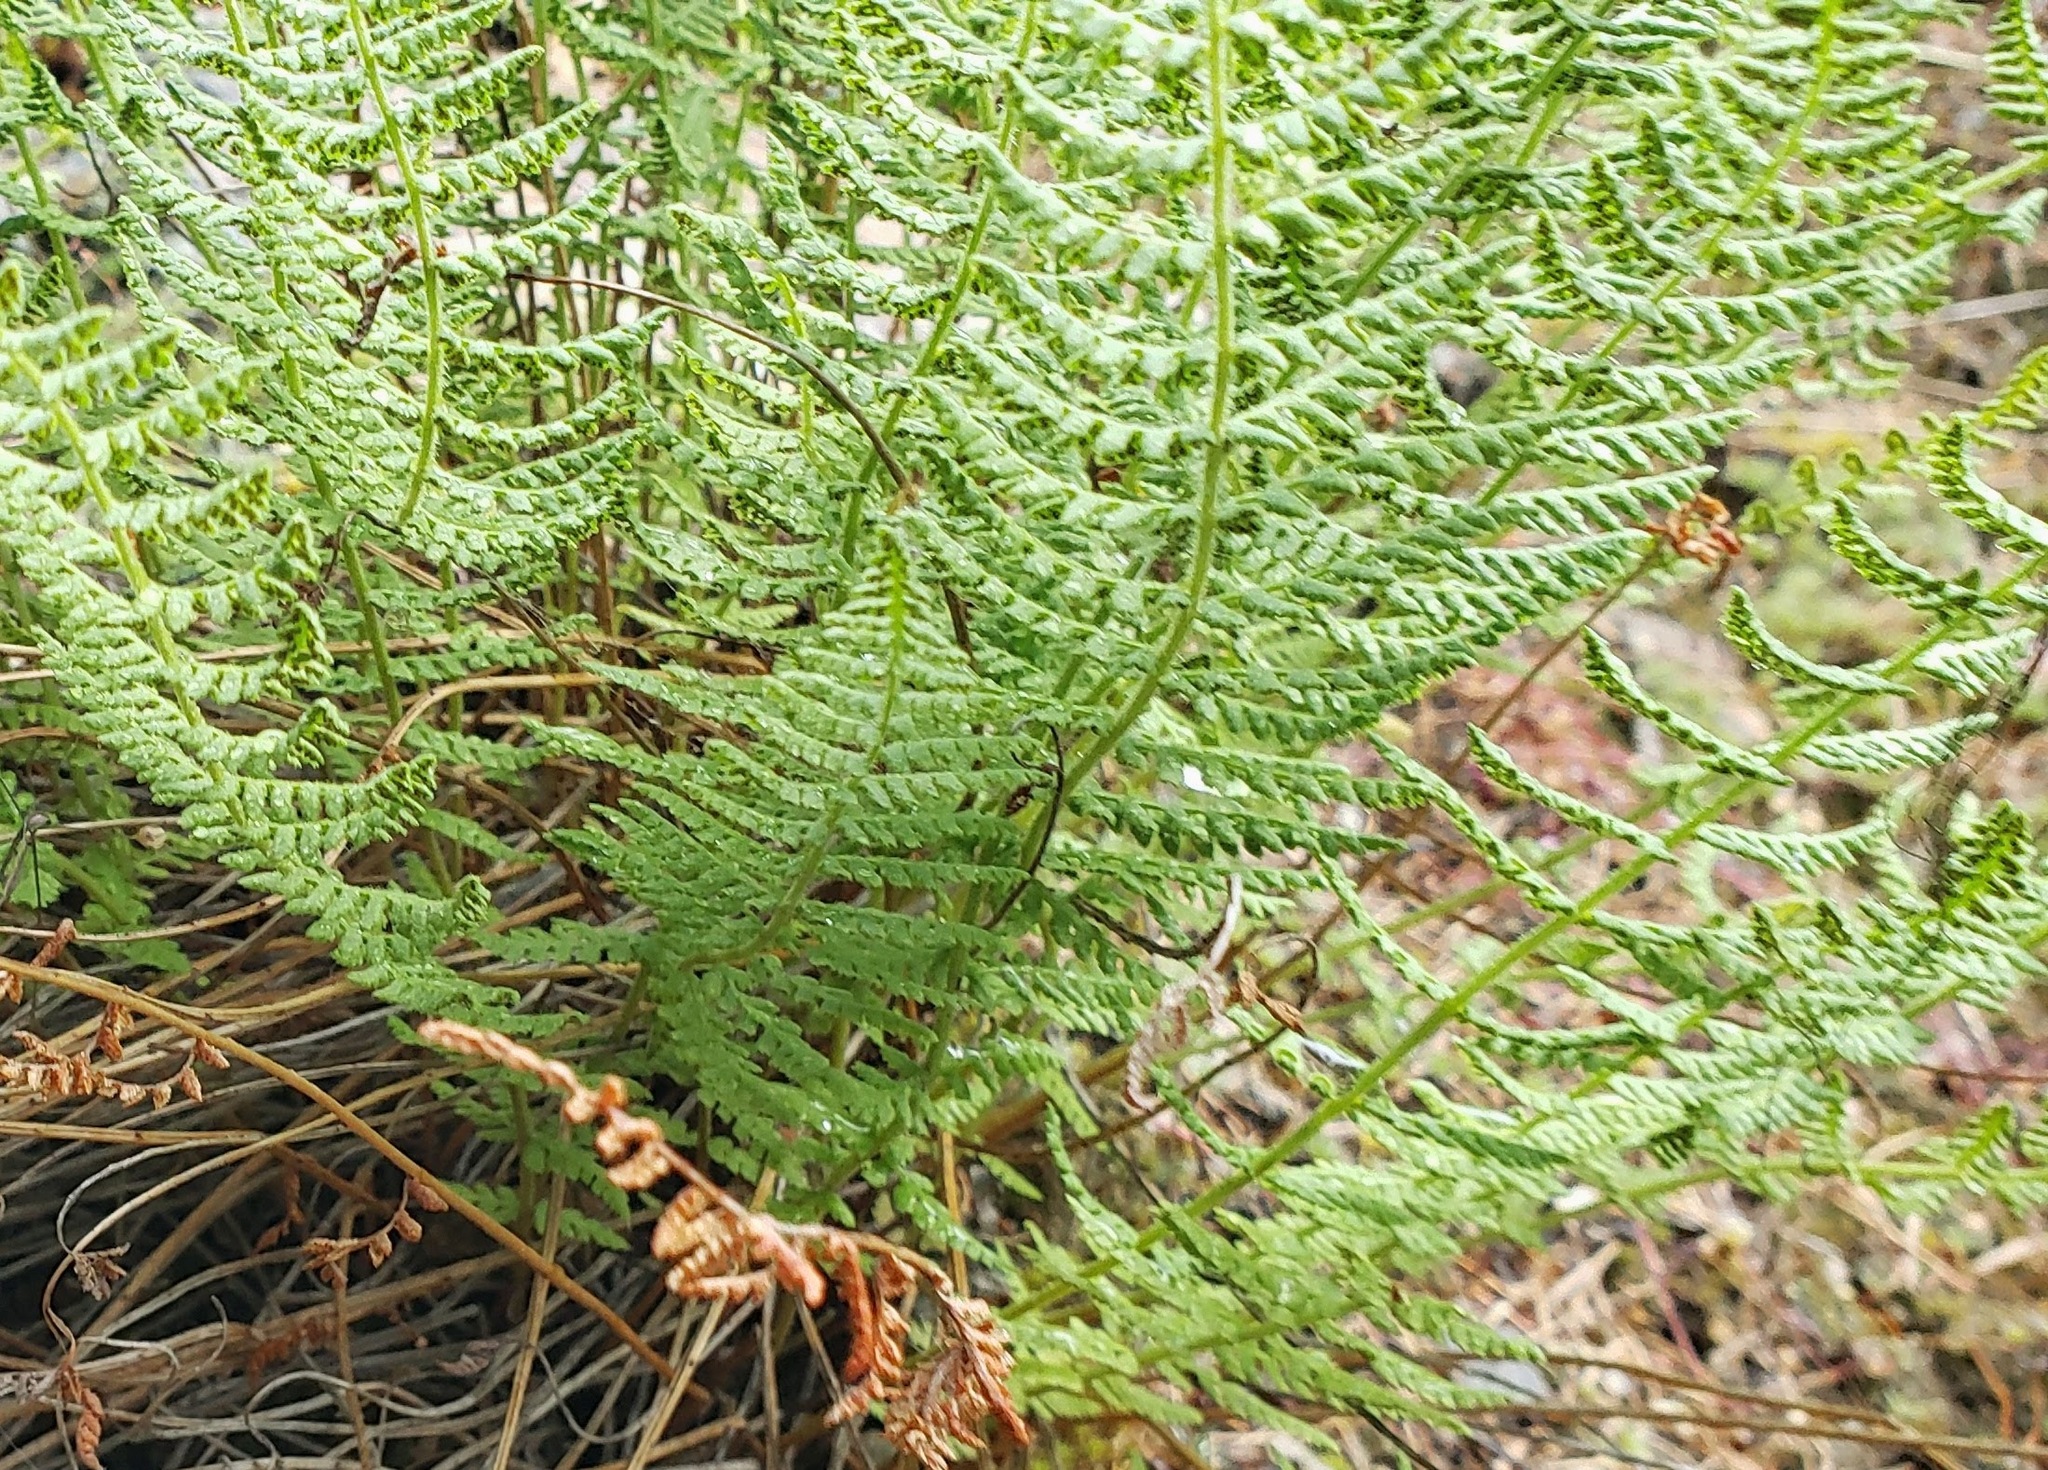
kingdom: Plantae
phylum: Tracheophyta
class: Polypodiopsida
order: Polypodiales
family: Woodsiaceae
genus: Physematium
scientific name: Physematium scopulinum
